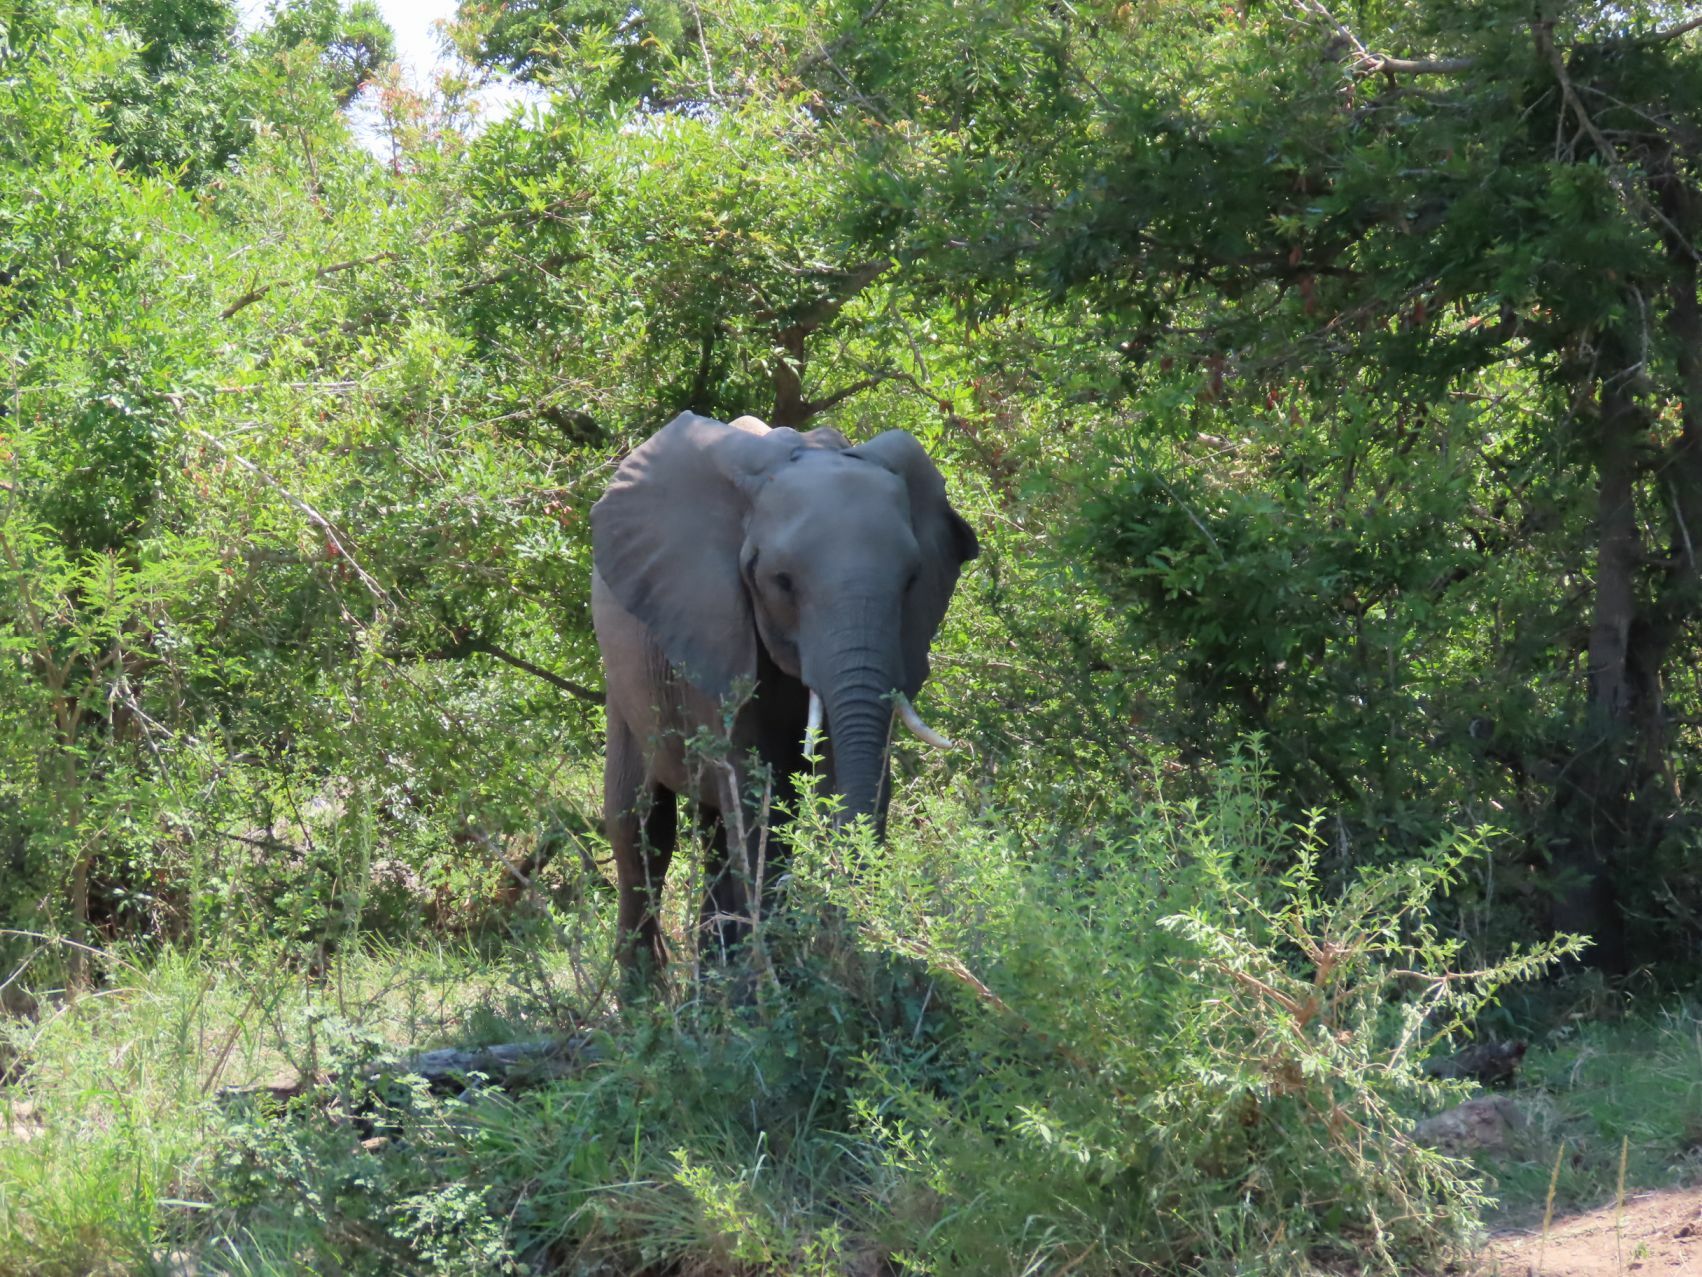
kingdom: Animalia
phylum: Chordata
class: Mammalia
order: Proboscidea
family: Elephantidae
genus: Loxodonta
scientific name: Loxodonta africana
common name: African elephant
